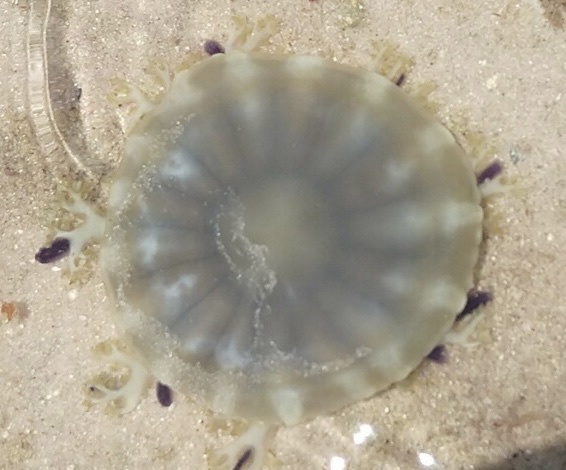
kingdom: Animalia
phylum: Cnidaria
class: Scyphozoa
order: Rhizostomeae
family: Cassiopeidae
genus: Cassiopea
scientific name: Cassiopea andromeda
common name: Upside-down jellyfish
